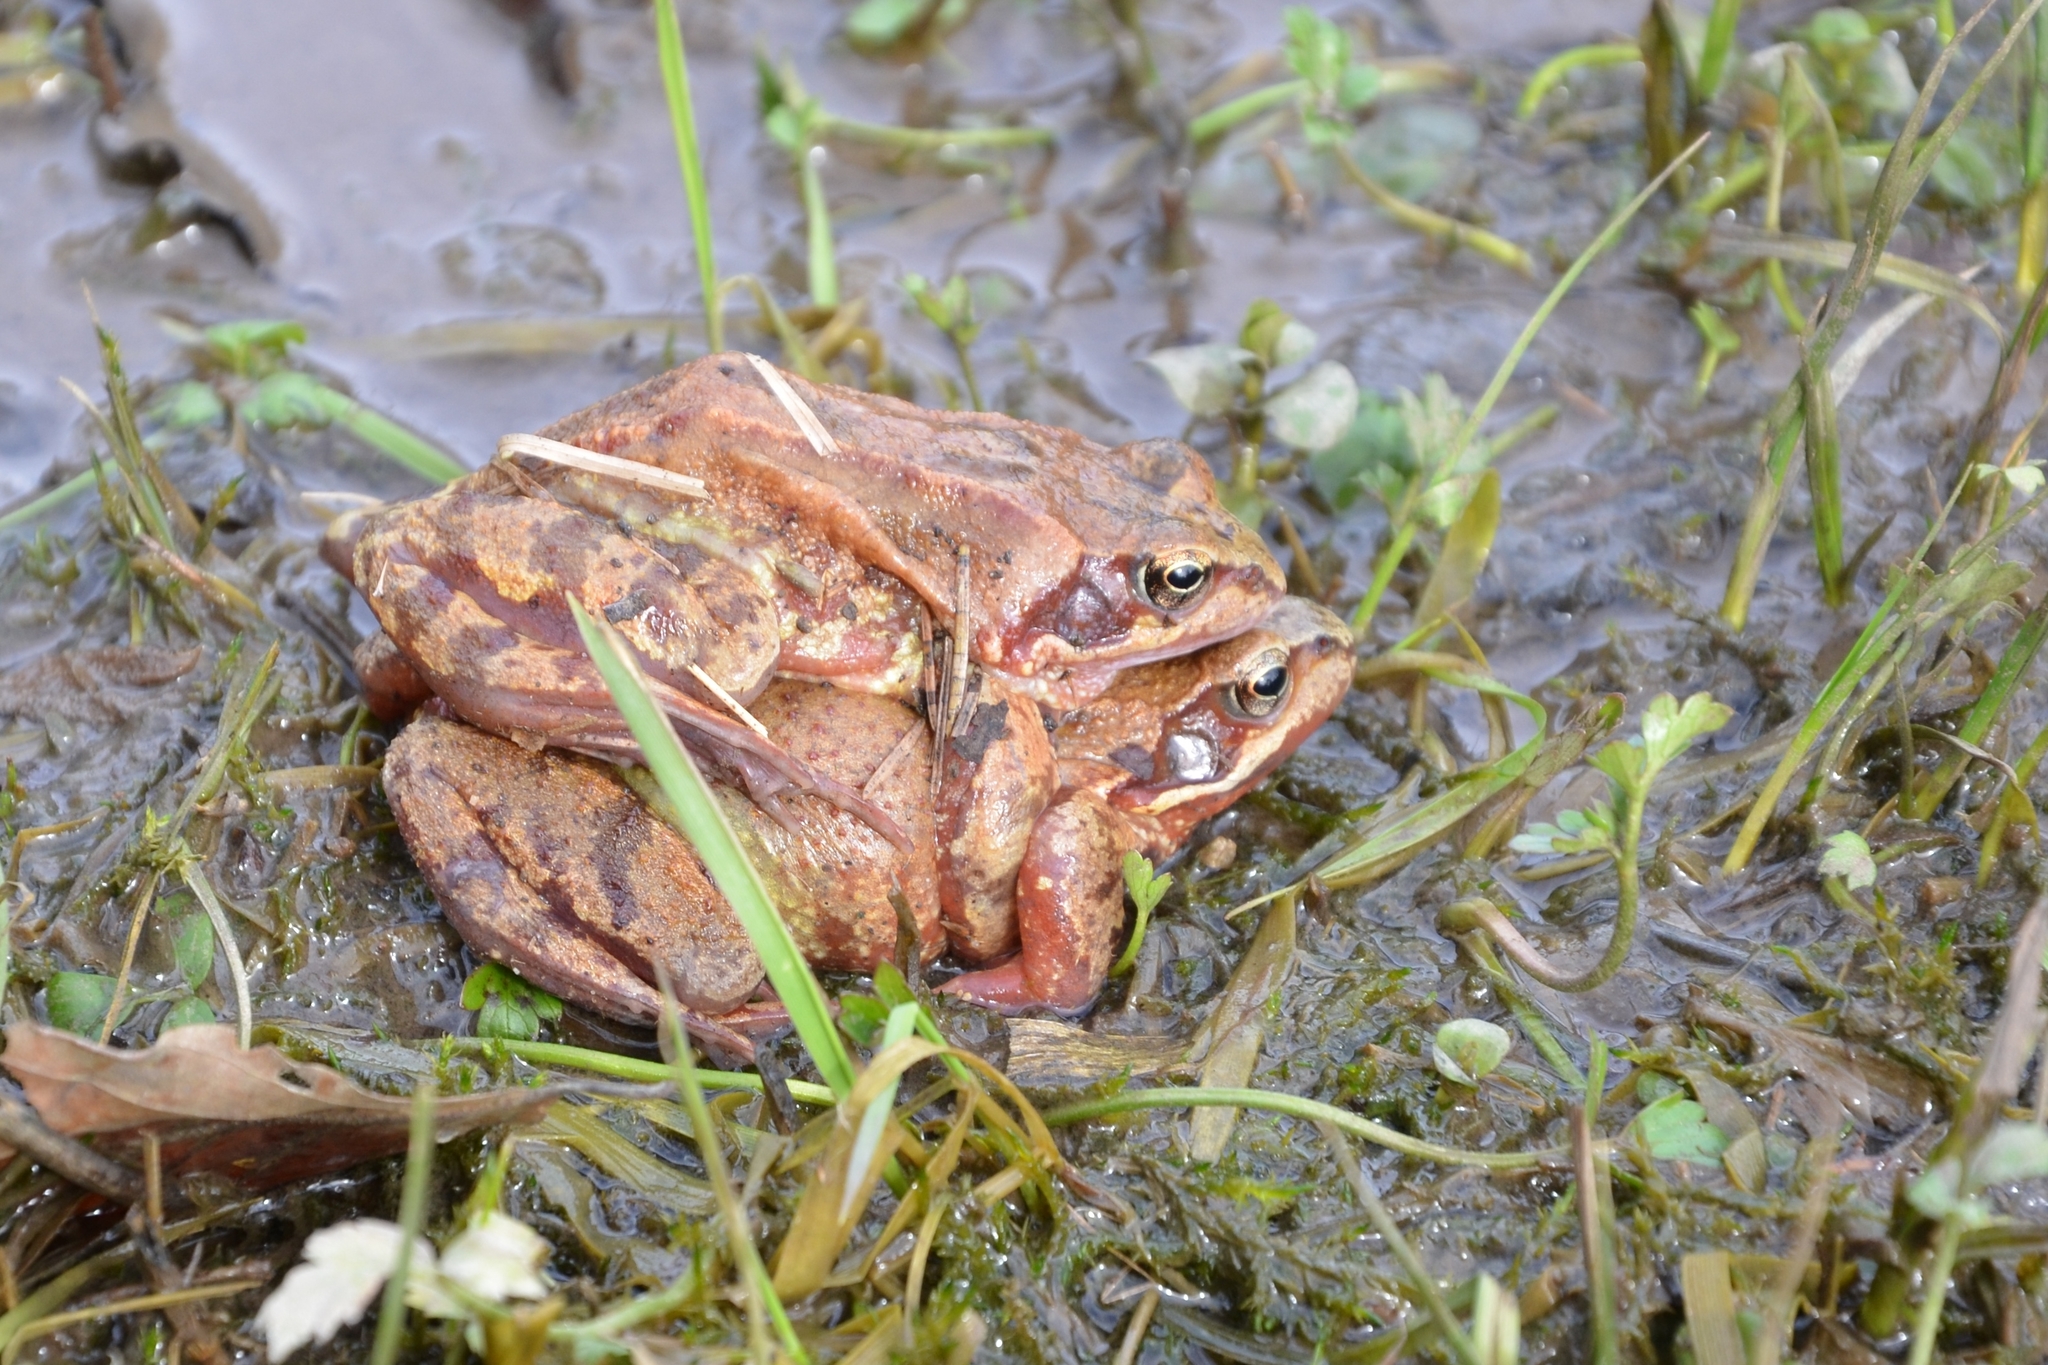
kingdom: Animalia
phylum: Chordata
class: Amphibia
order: Anura
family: Ranidae
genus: Rana
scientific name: Rana temporaria
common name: Common frog
